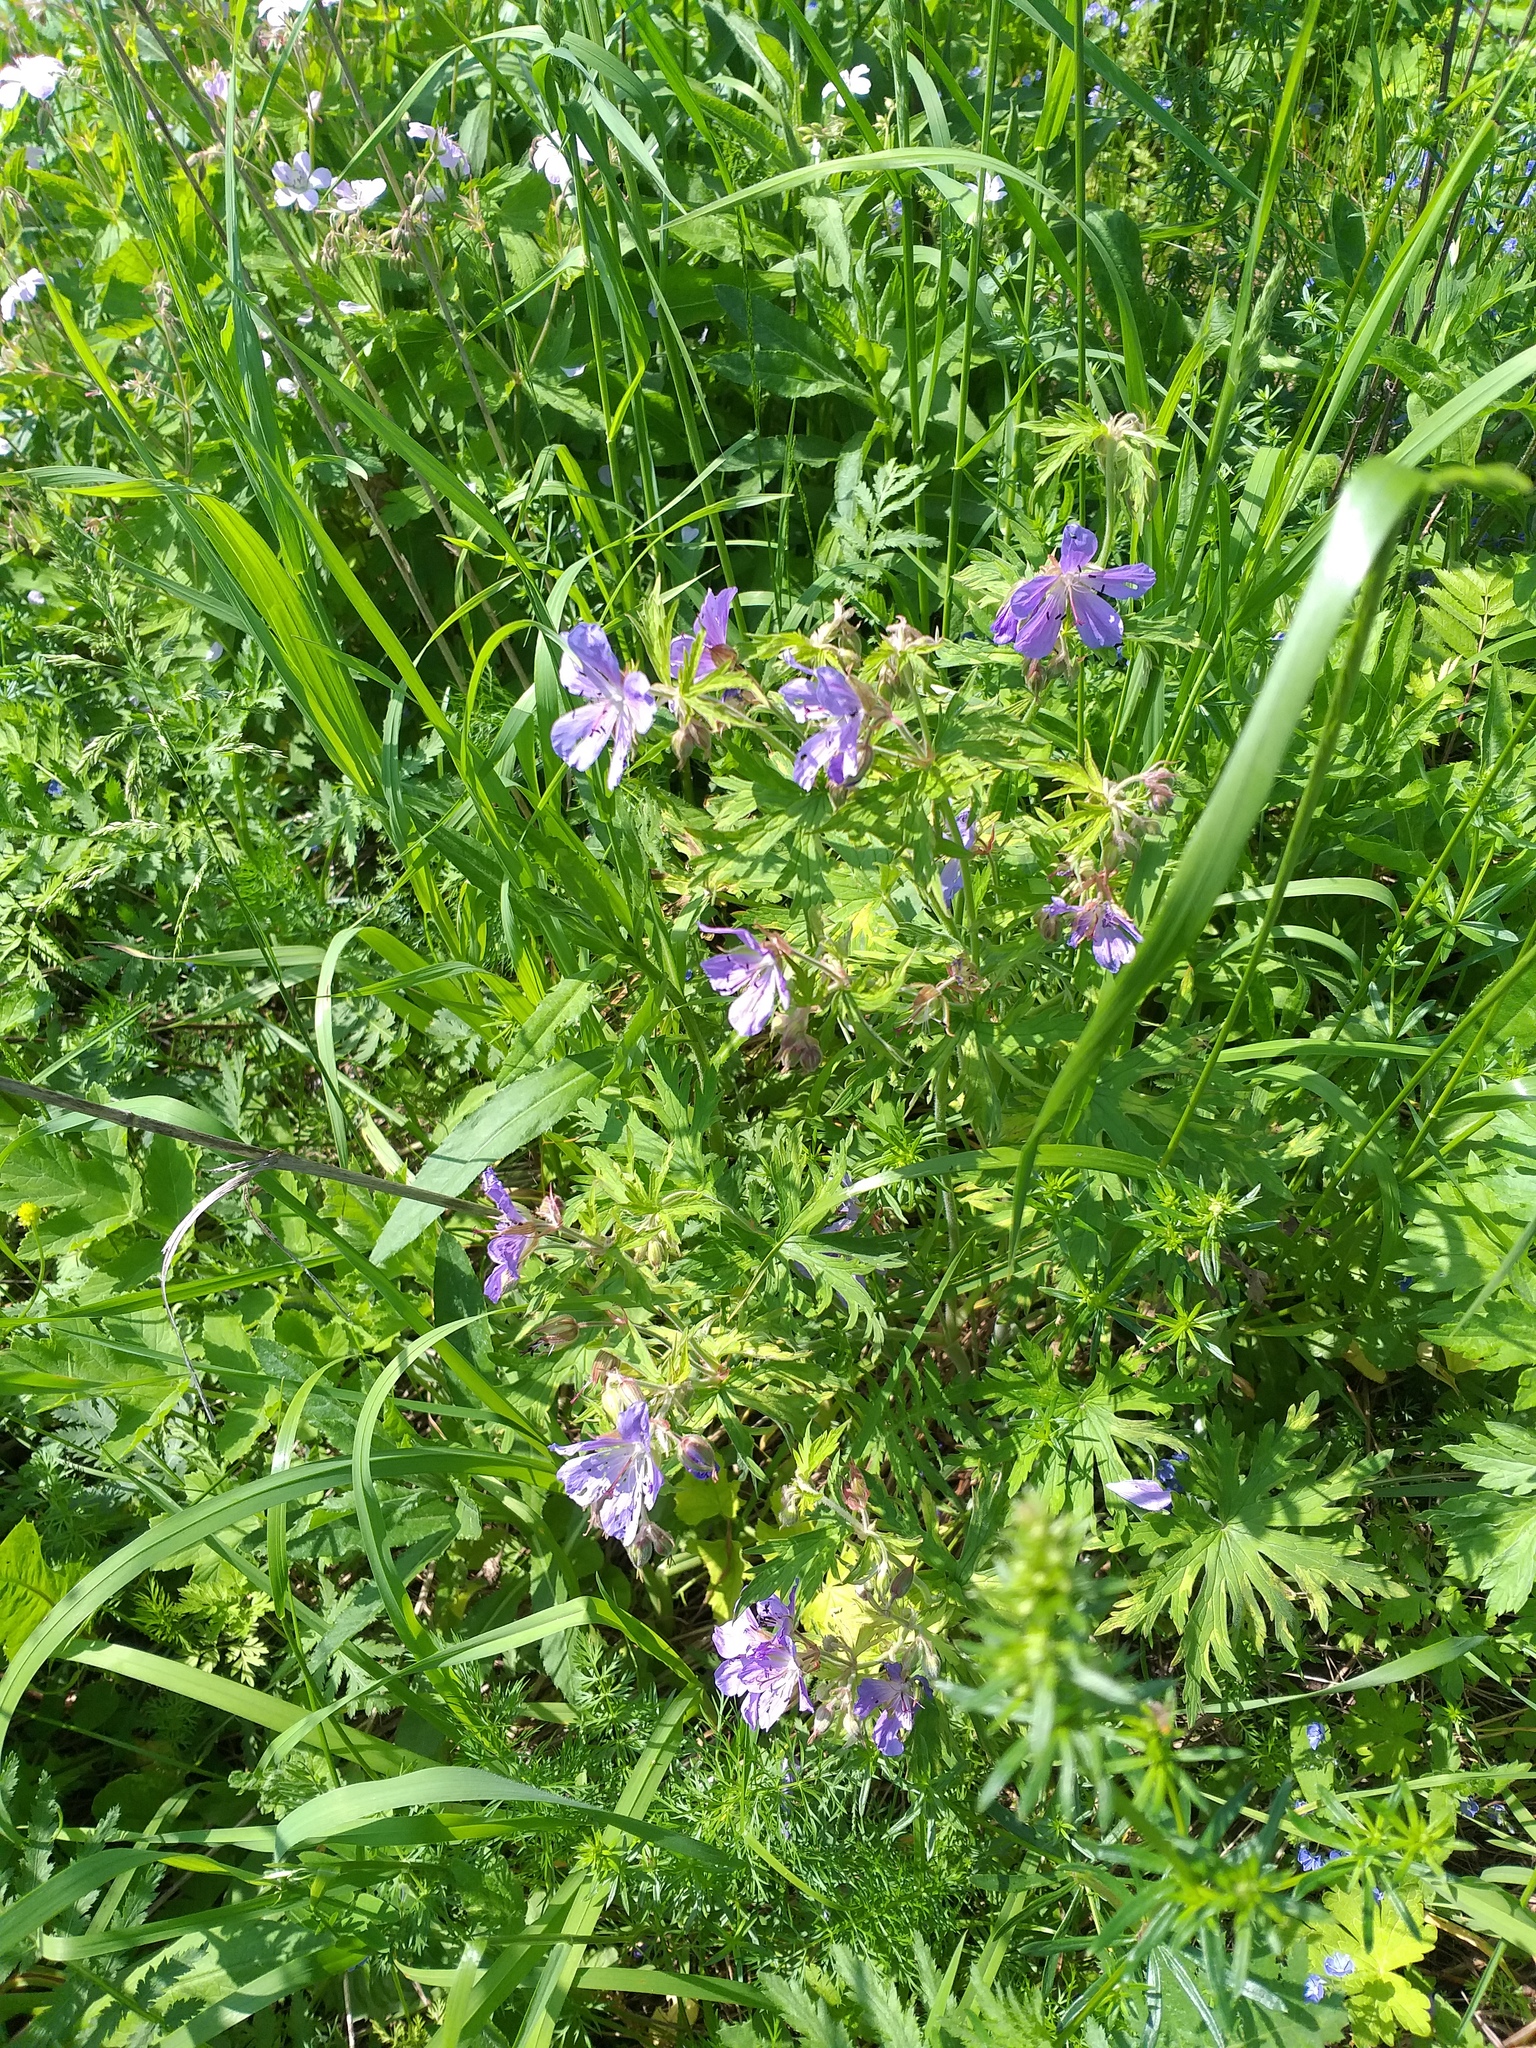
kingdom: Plantae
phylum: Tracheophyta
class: Magnoliopsida
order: Geraniales
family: Geraniaceae
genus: Geranium
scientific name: Geranium pratense
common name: Meadow crane's-bill
